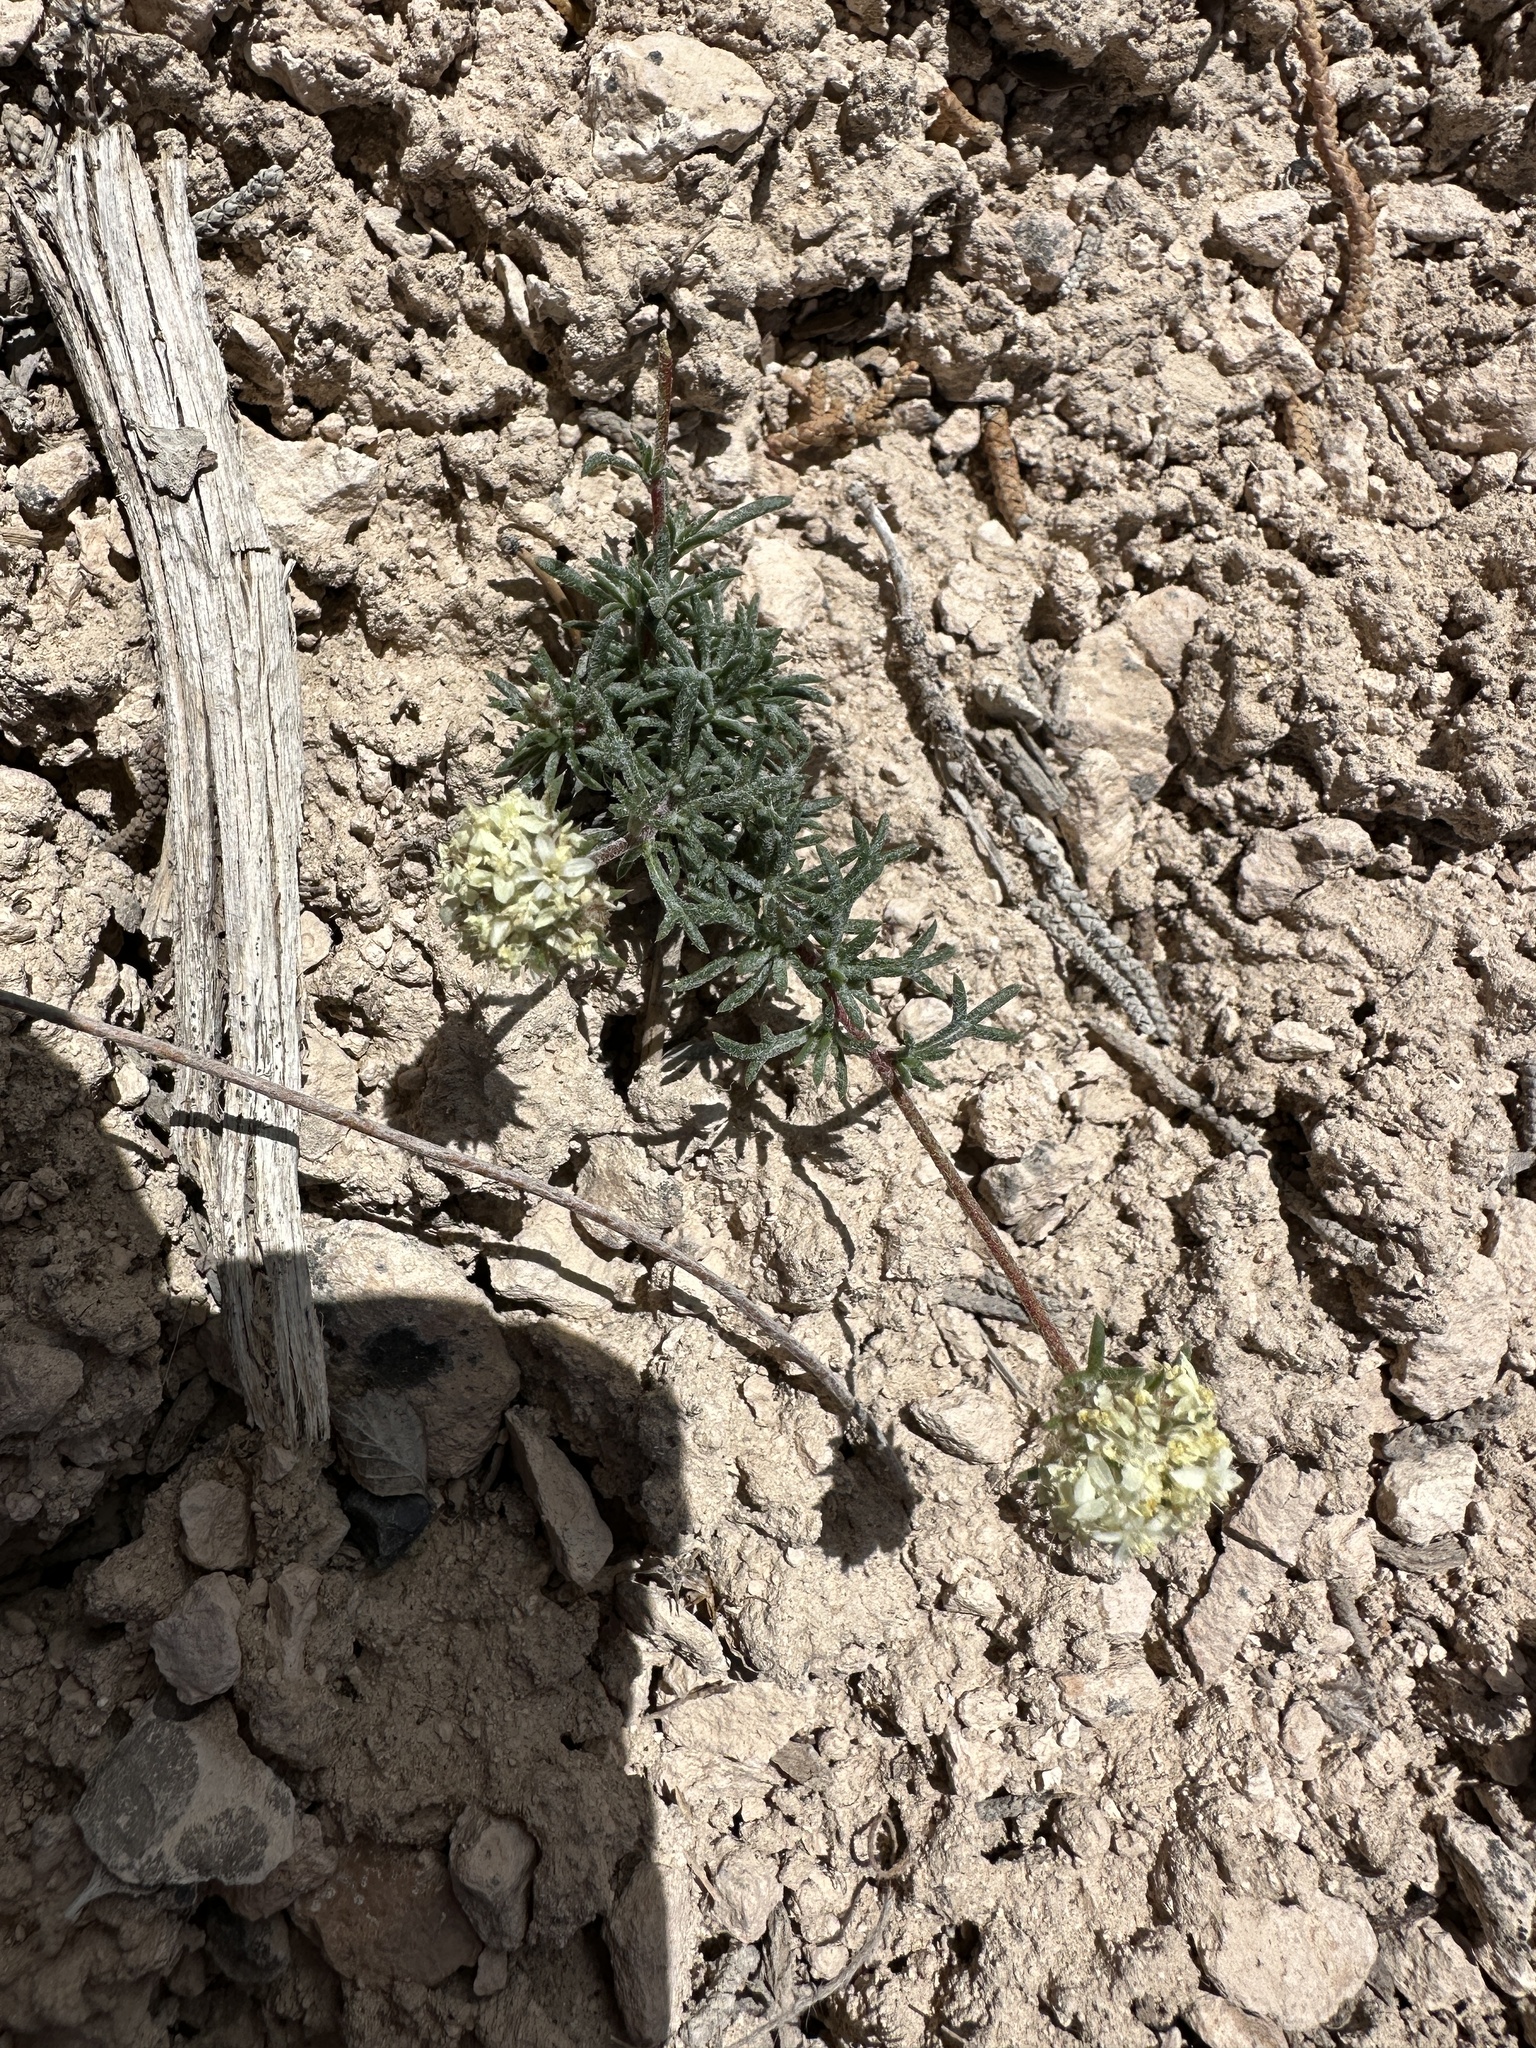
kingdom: Plantae
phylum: Tracheophyta
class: Magnoliopsida
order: Ericales
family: Polemoniaceae
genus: Ipomopsis
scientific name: Ipomopsis congesta
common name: Ball-head gilia
